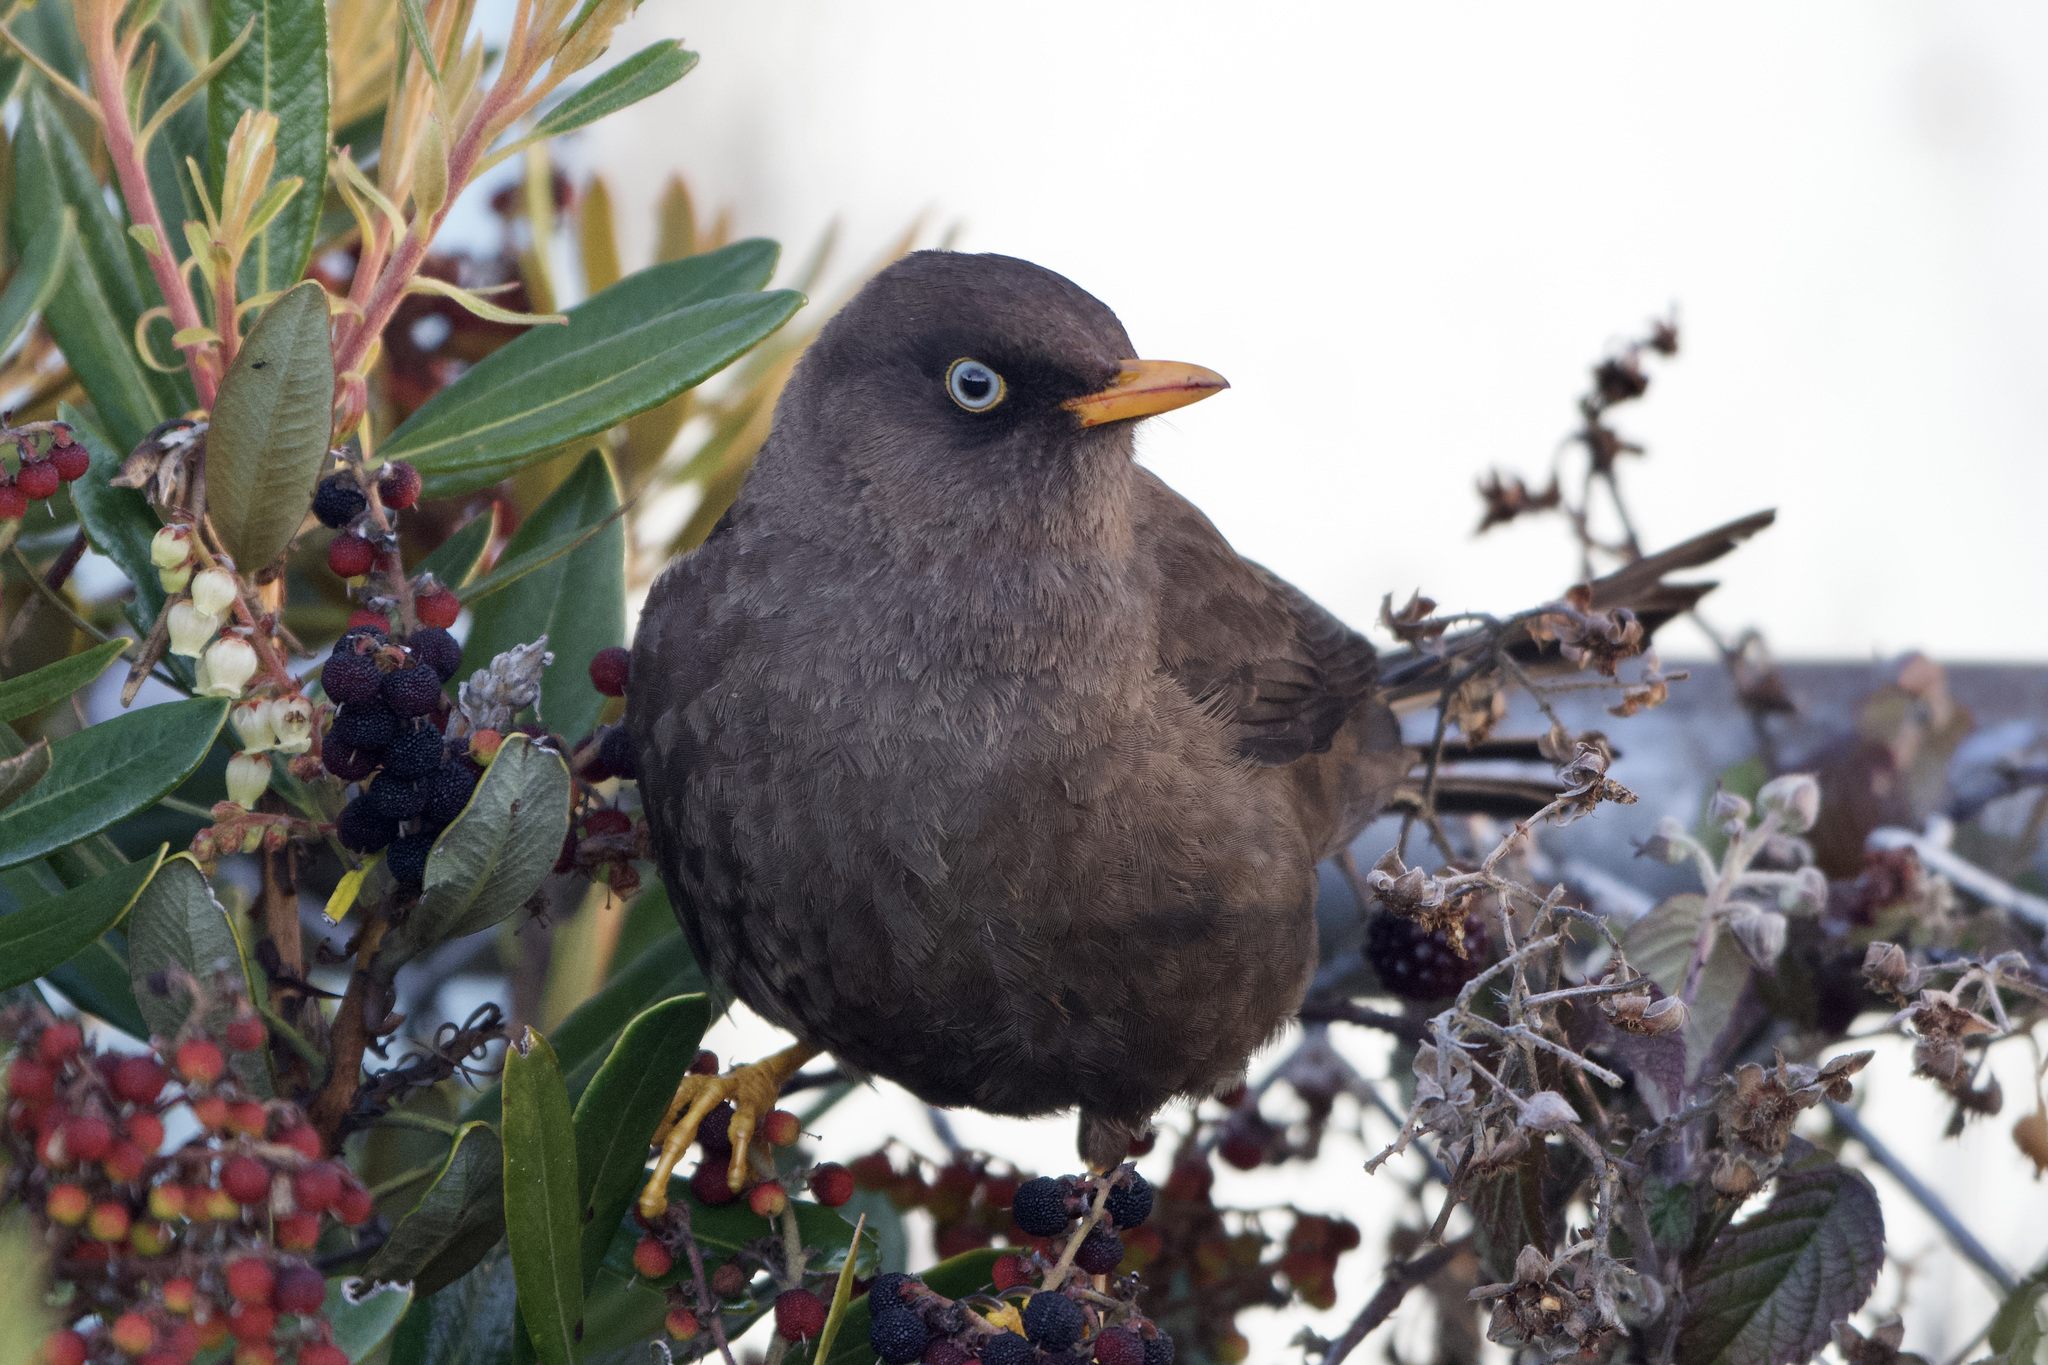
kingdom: Animalia
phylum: Chordata
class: Aves
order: Passeriformes
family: Turdidae
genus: Turdus
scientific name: Turdus nigrescens
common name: Sooty thrush
